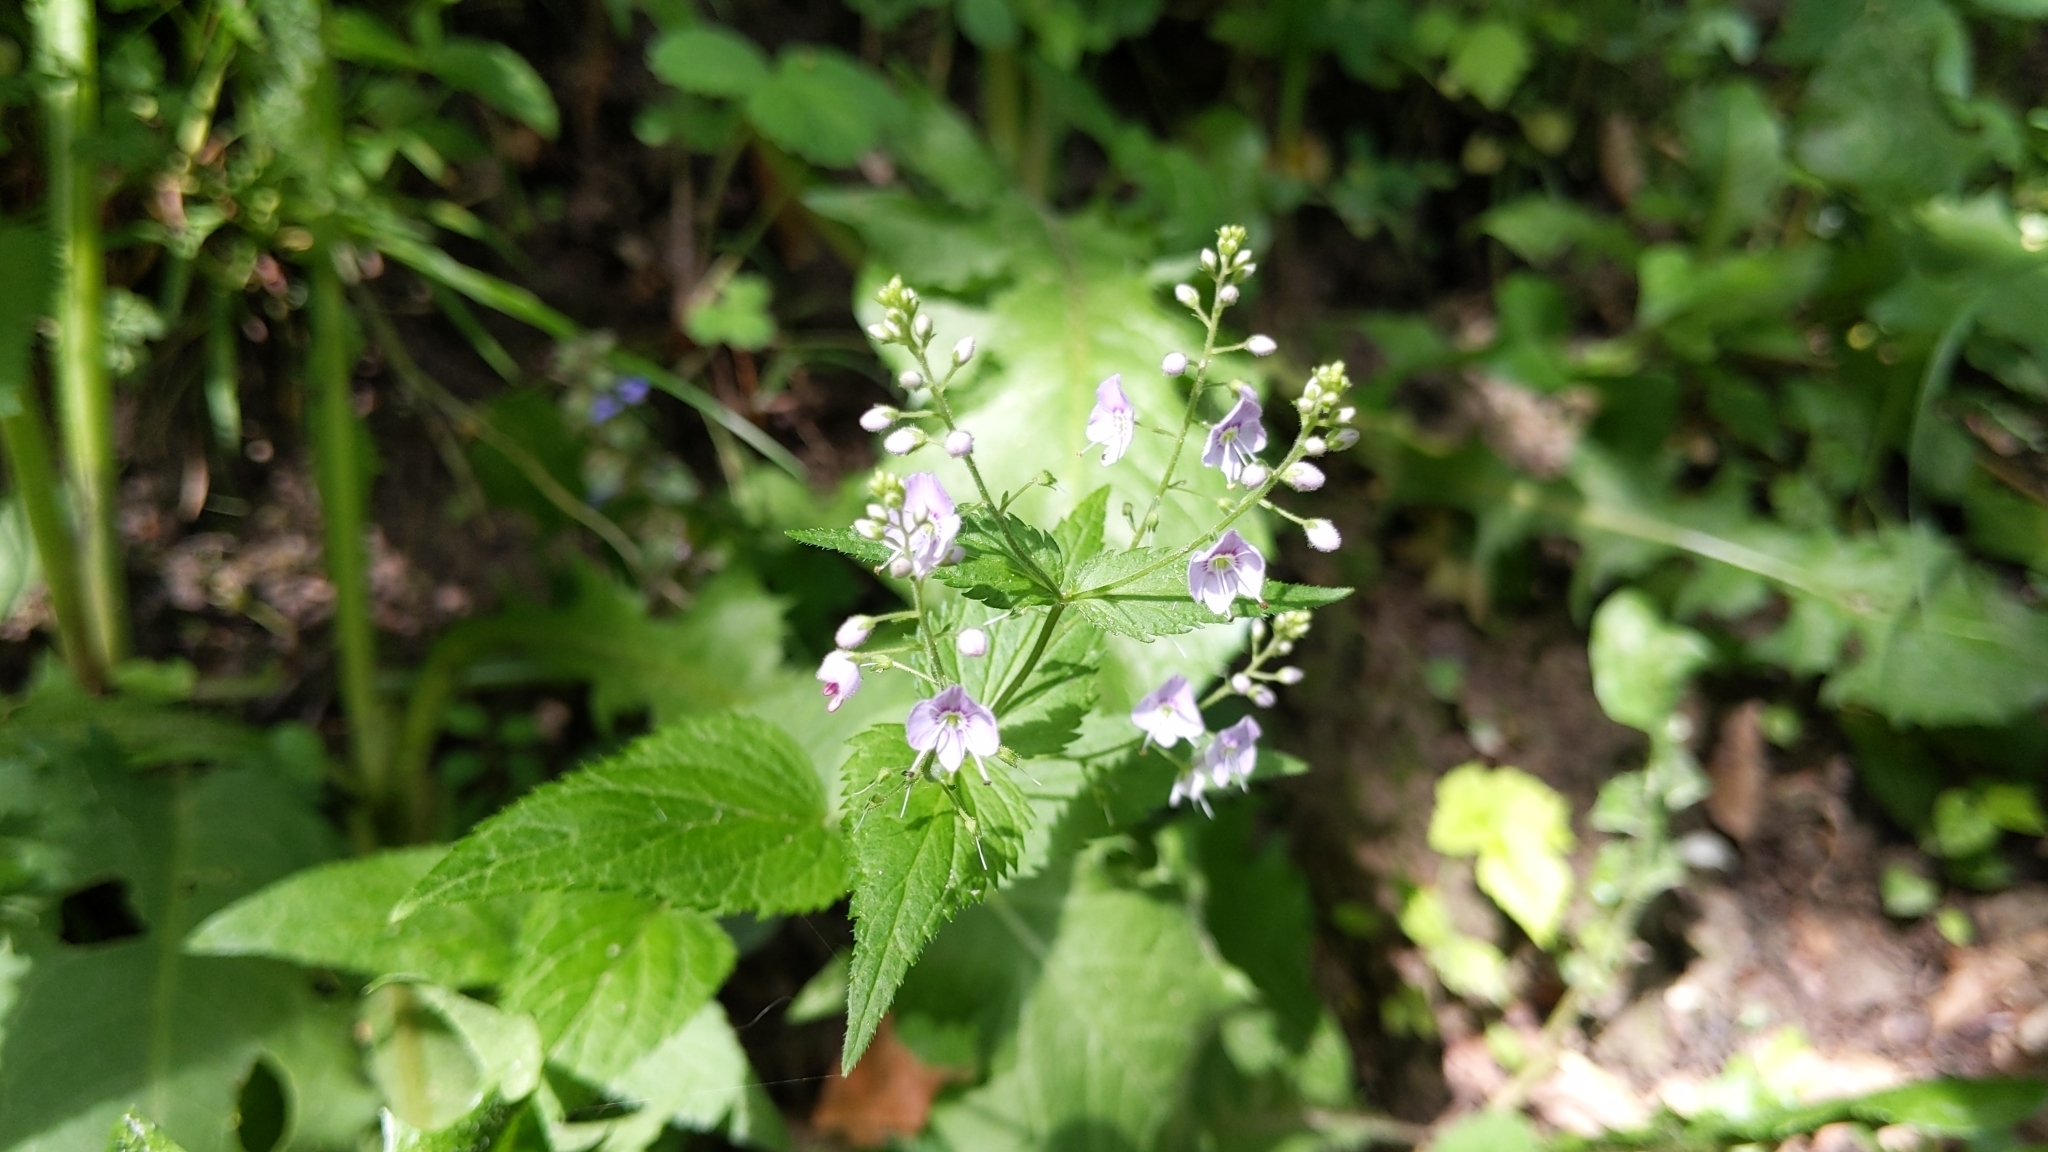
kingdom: Plantae
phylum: Tracheophyta
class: Magnoliopsida
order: Lamiales
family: Plantaginaceae
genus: Veronica
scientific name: Veronica urticifolia
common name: Nettle-leaf speedwell
